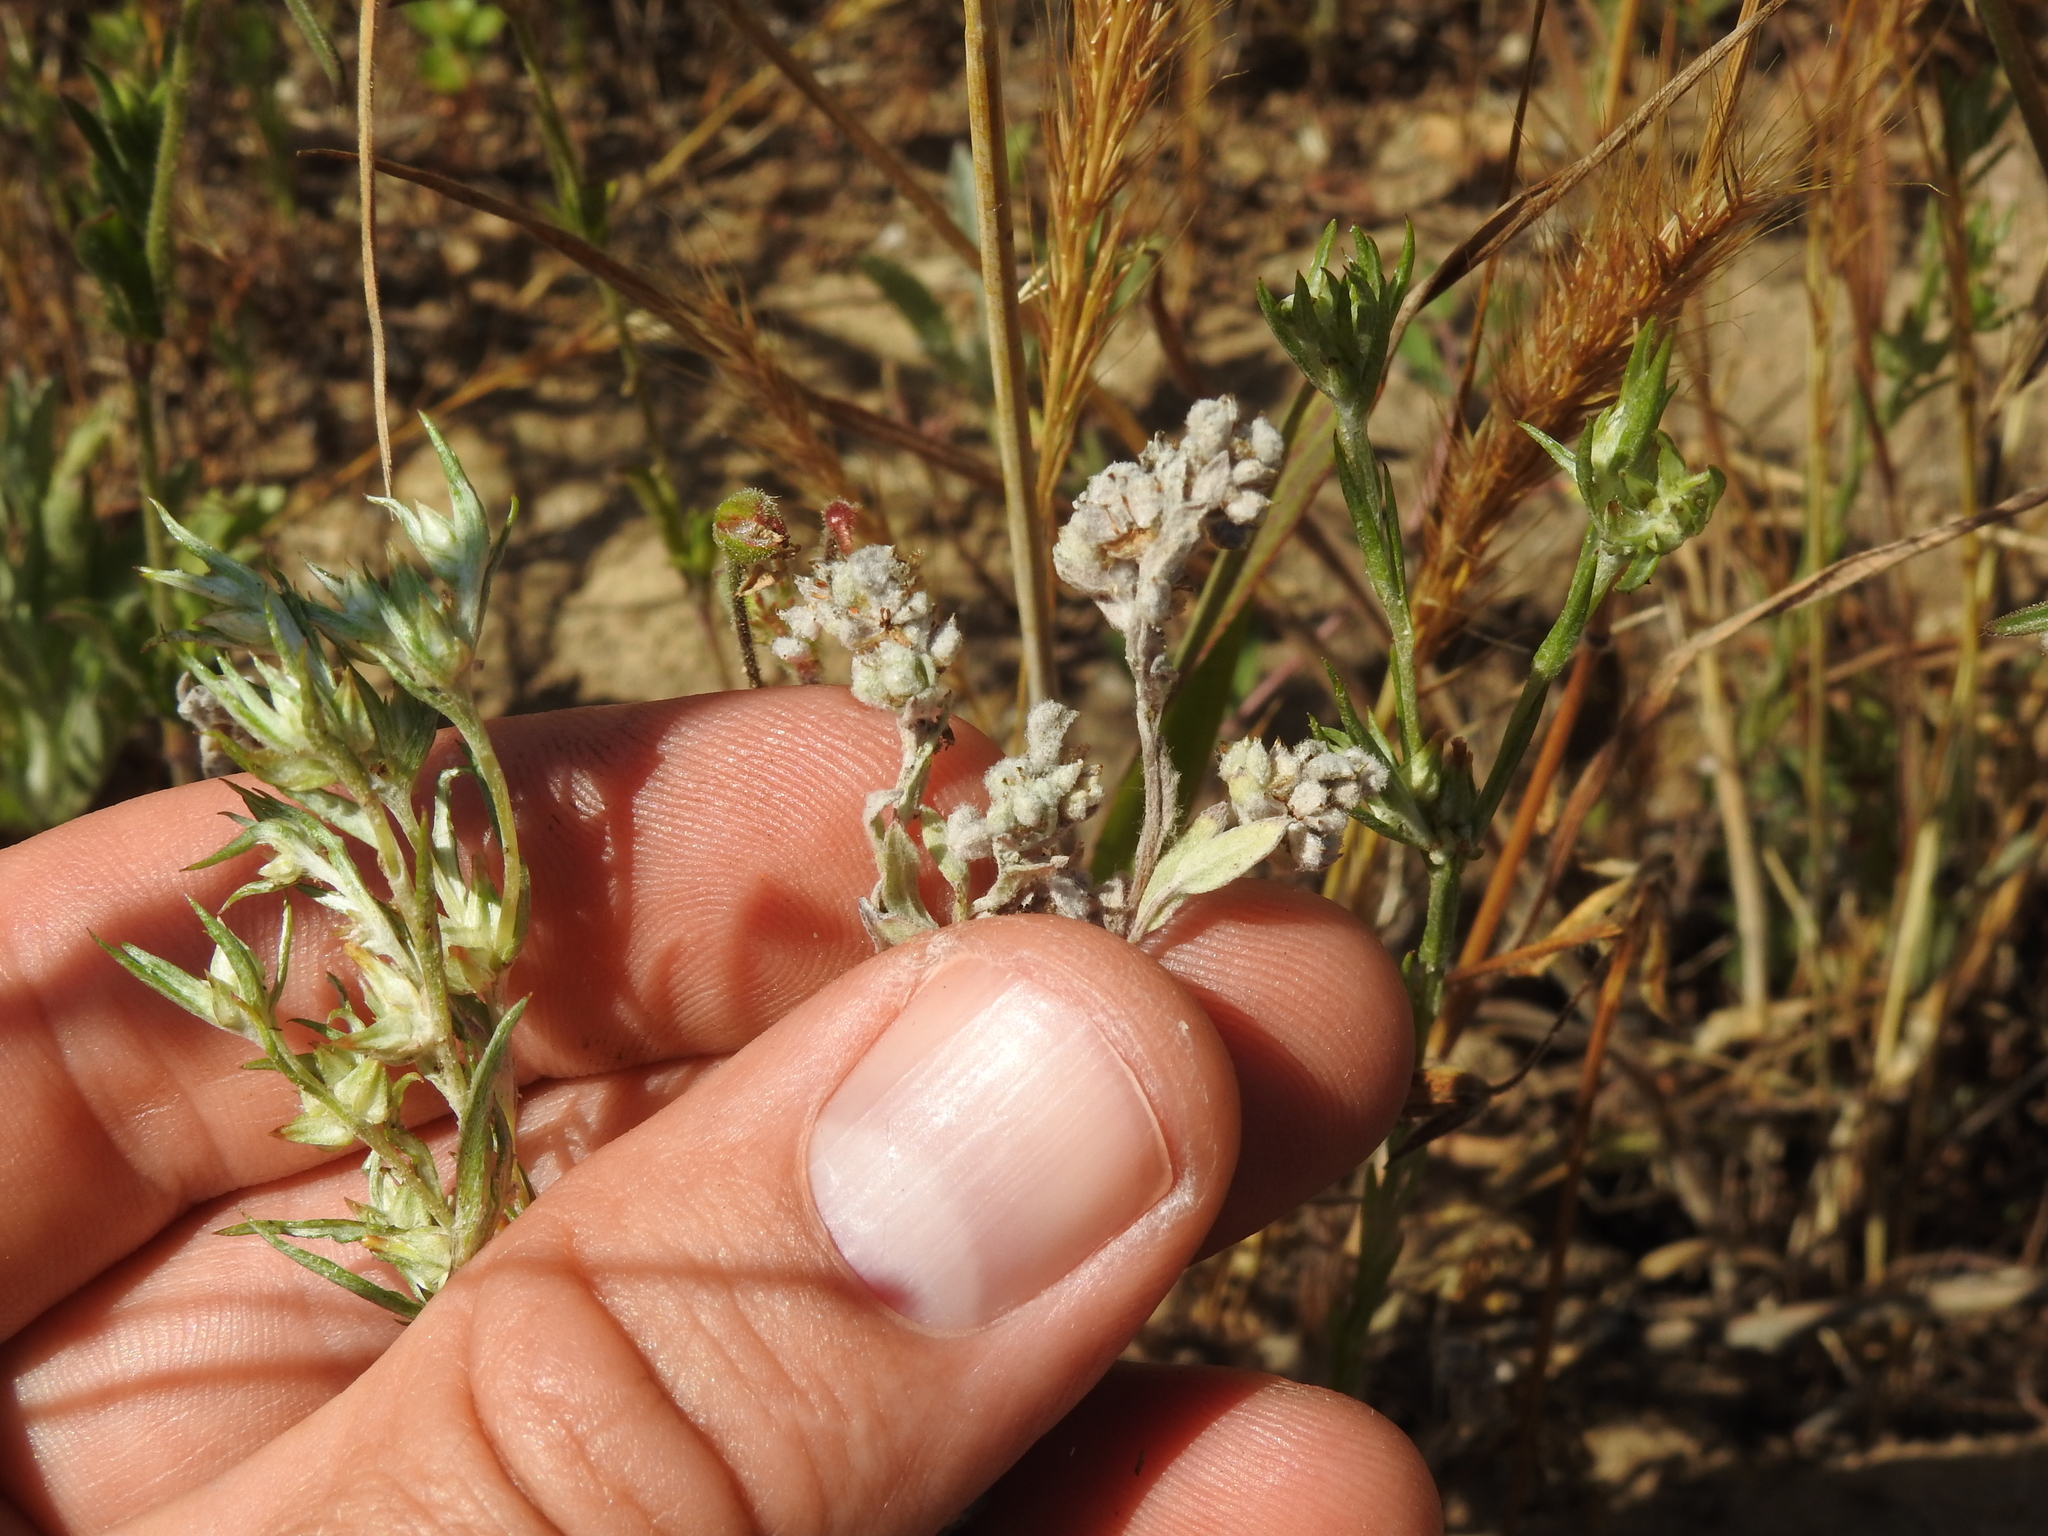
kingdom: Plantae
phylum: Tracheophyta
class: Magnoliopsida
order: Asterales
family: Asteraceae
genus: Bombycilaena
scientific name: Bombycilaena californica
